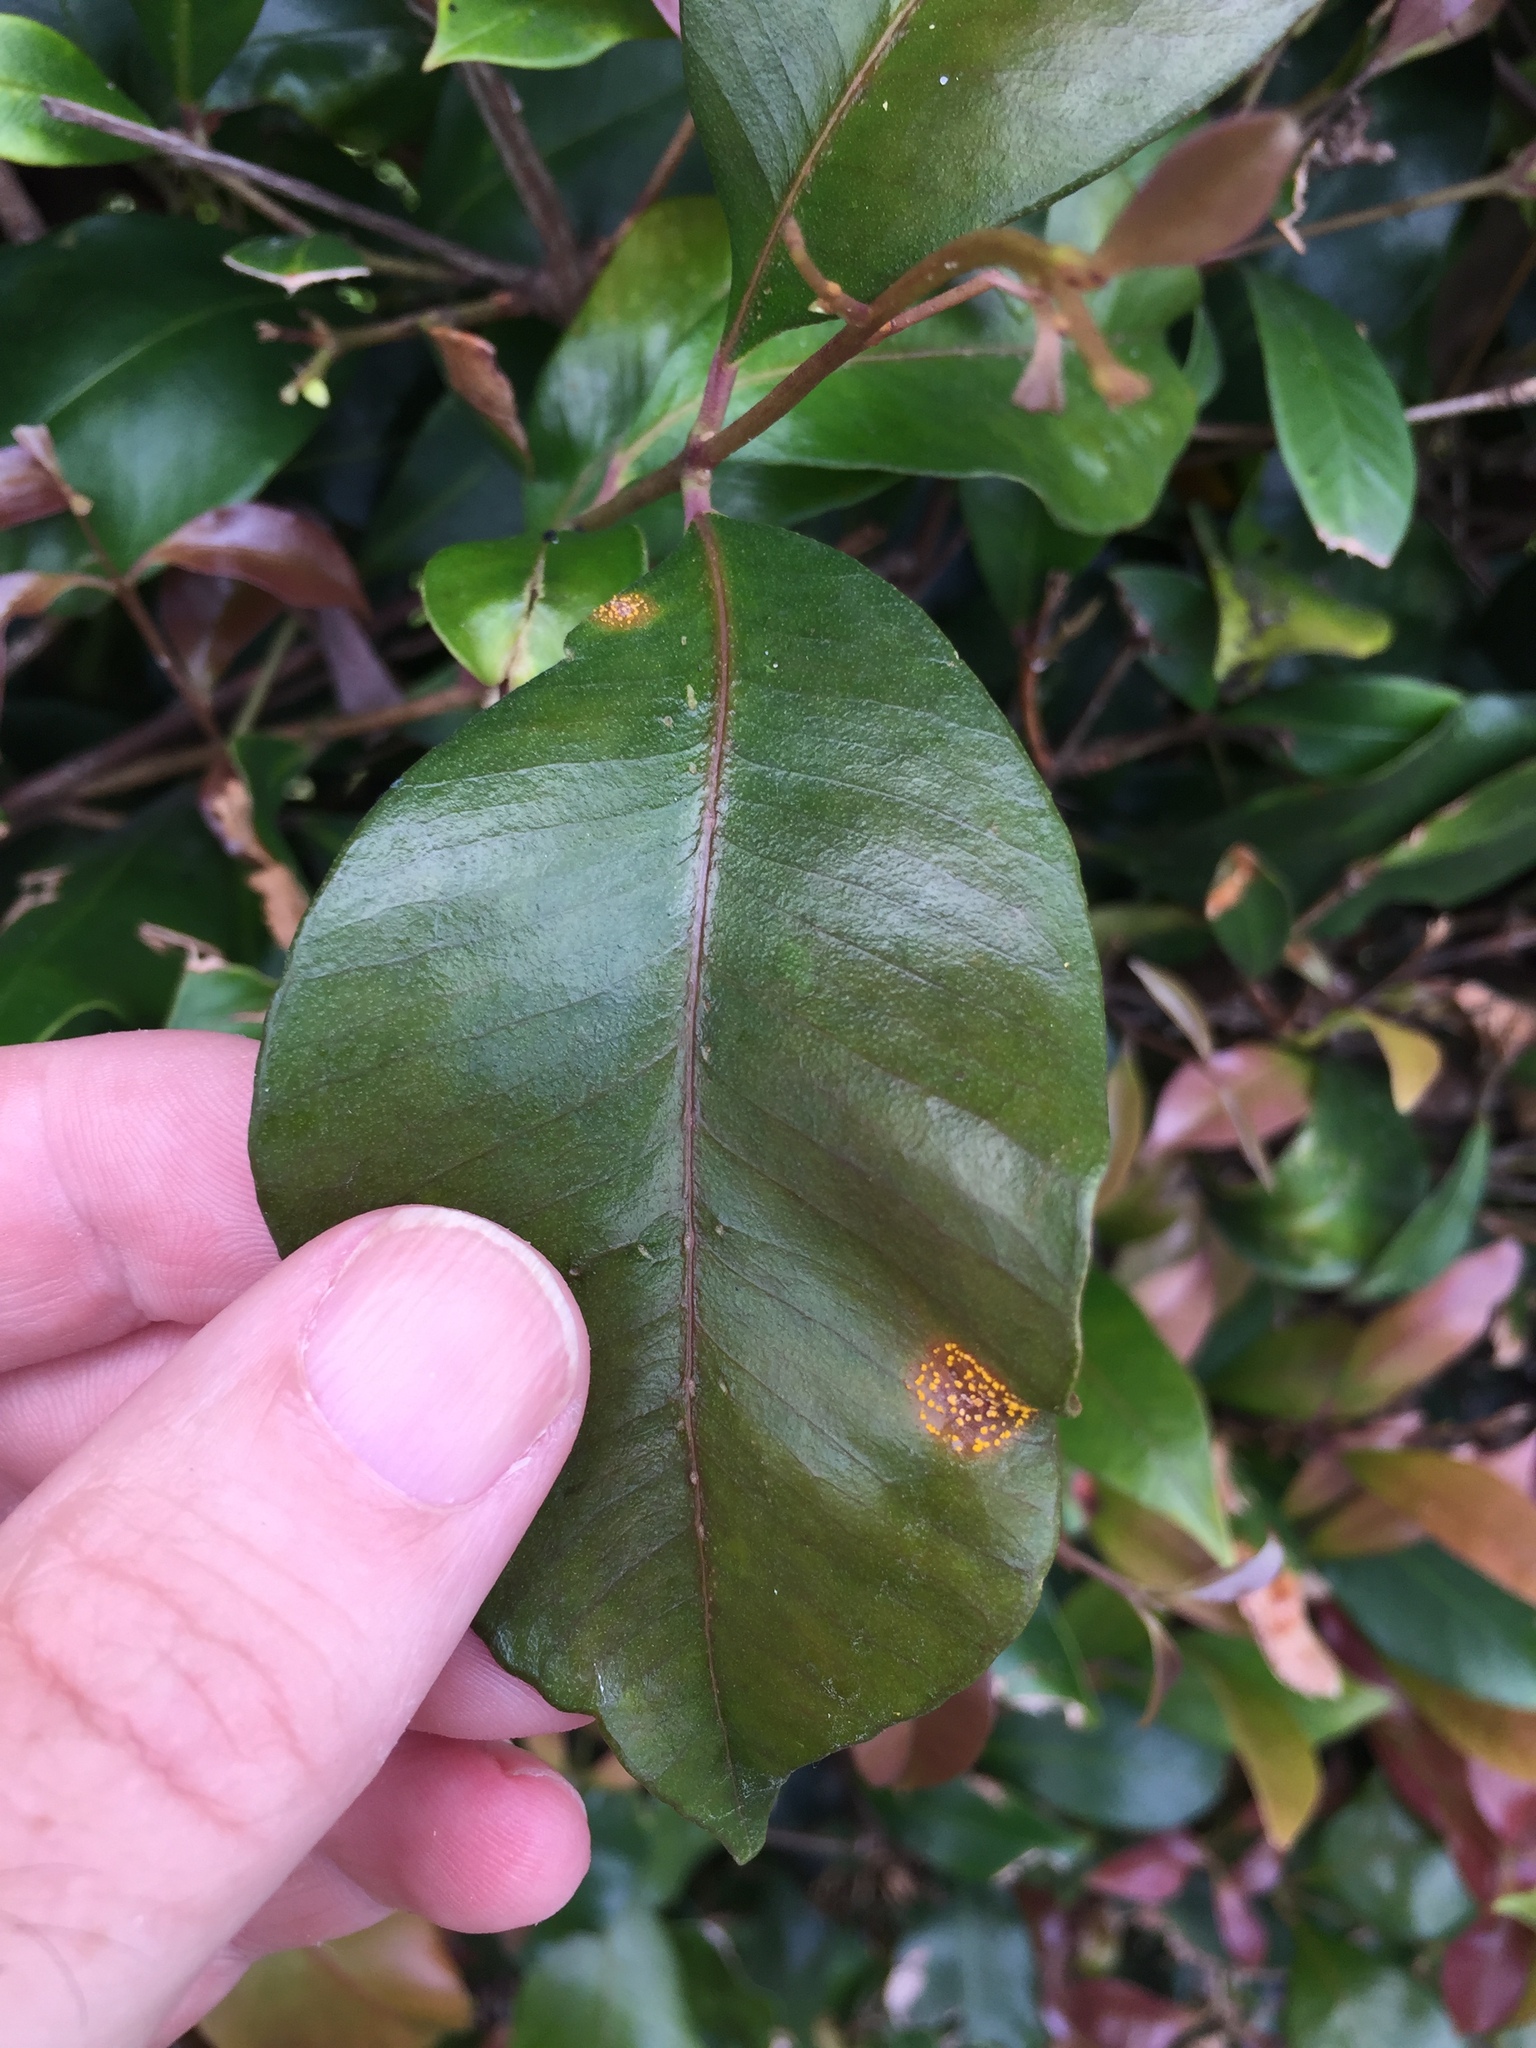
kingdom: Fungi
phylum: Basidiomycota
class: Pucciniomycetes
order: Pucciniales
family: Sphaerophragmiaceae
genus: Austropuccinia
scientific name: Austropuccinia psidii
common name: Myrtle rust
